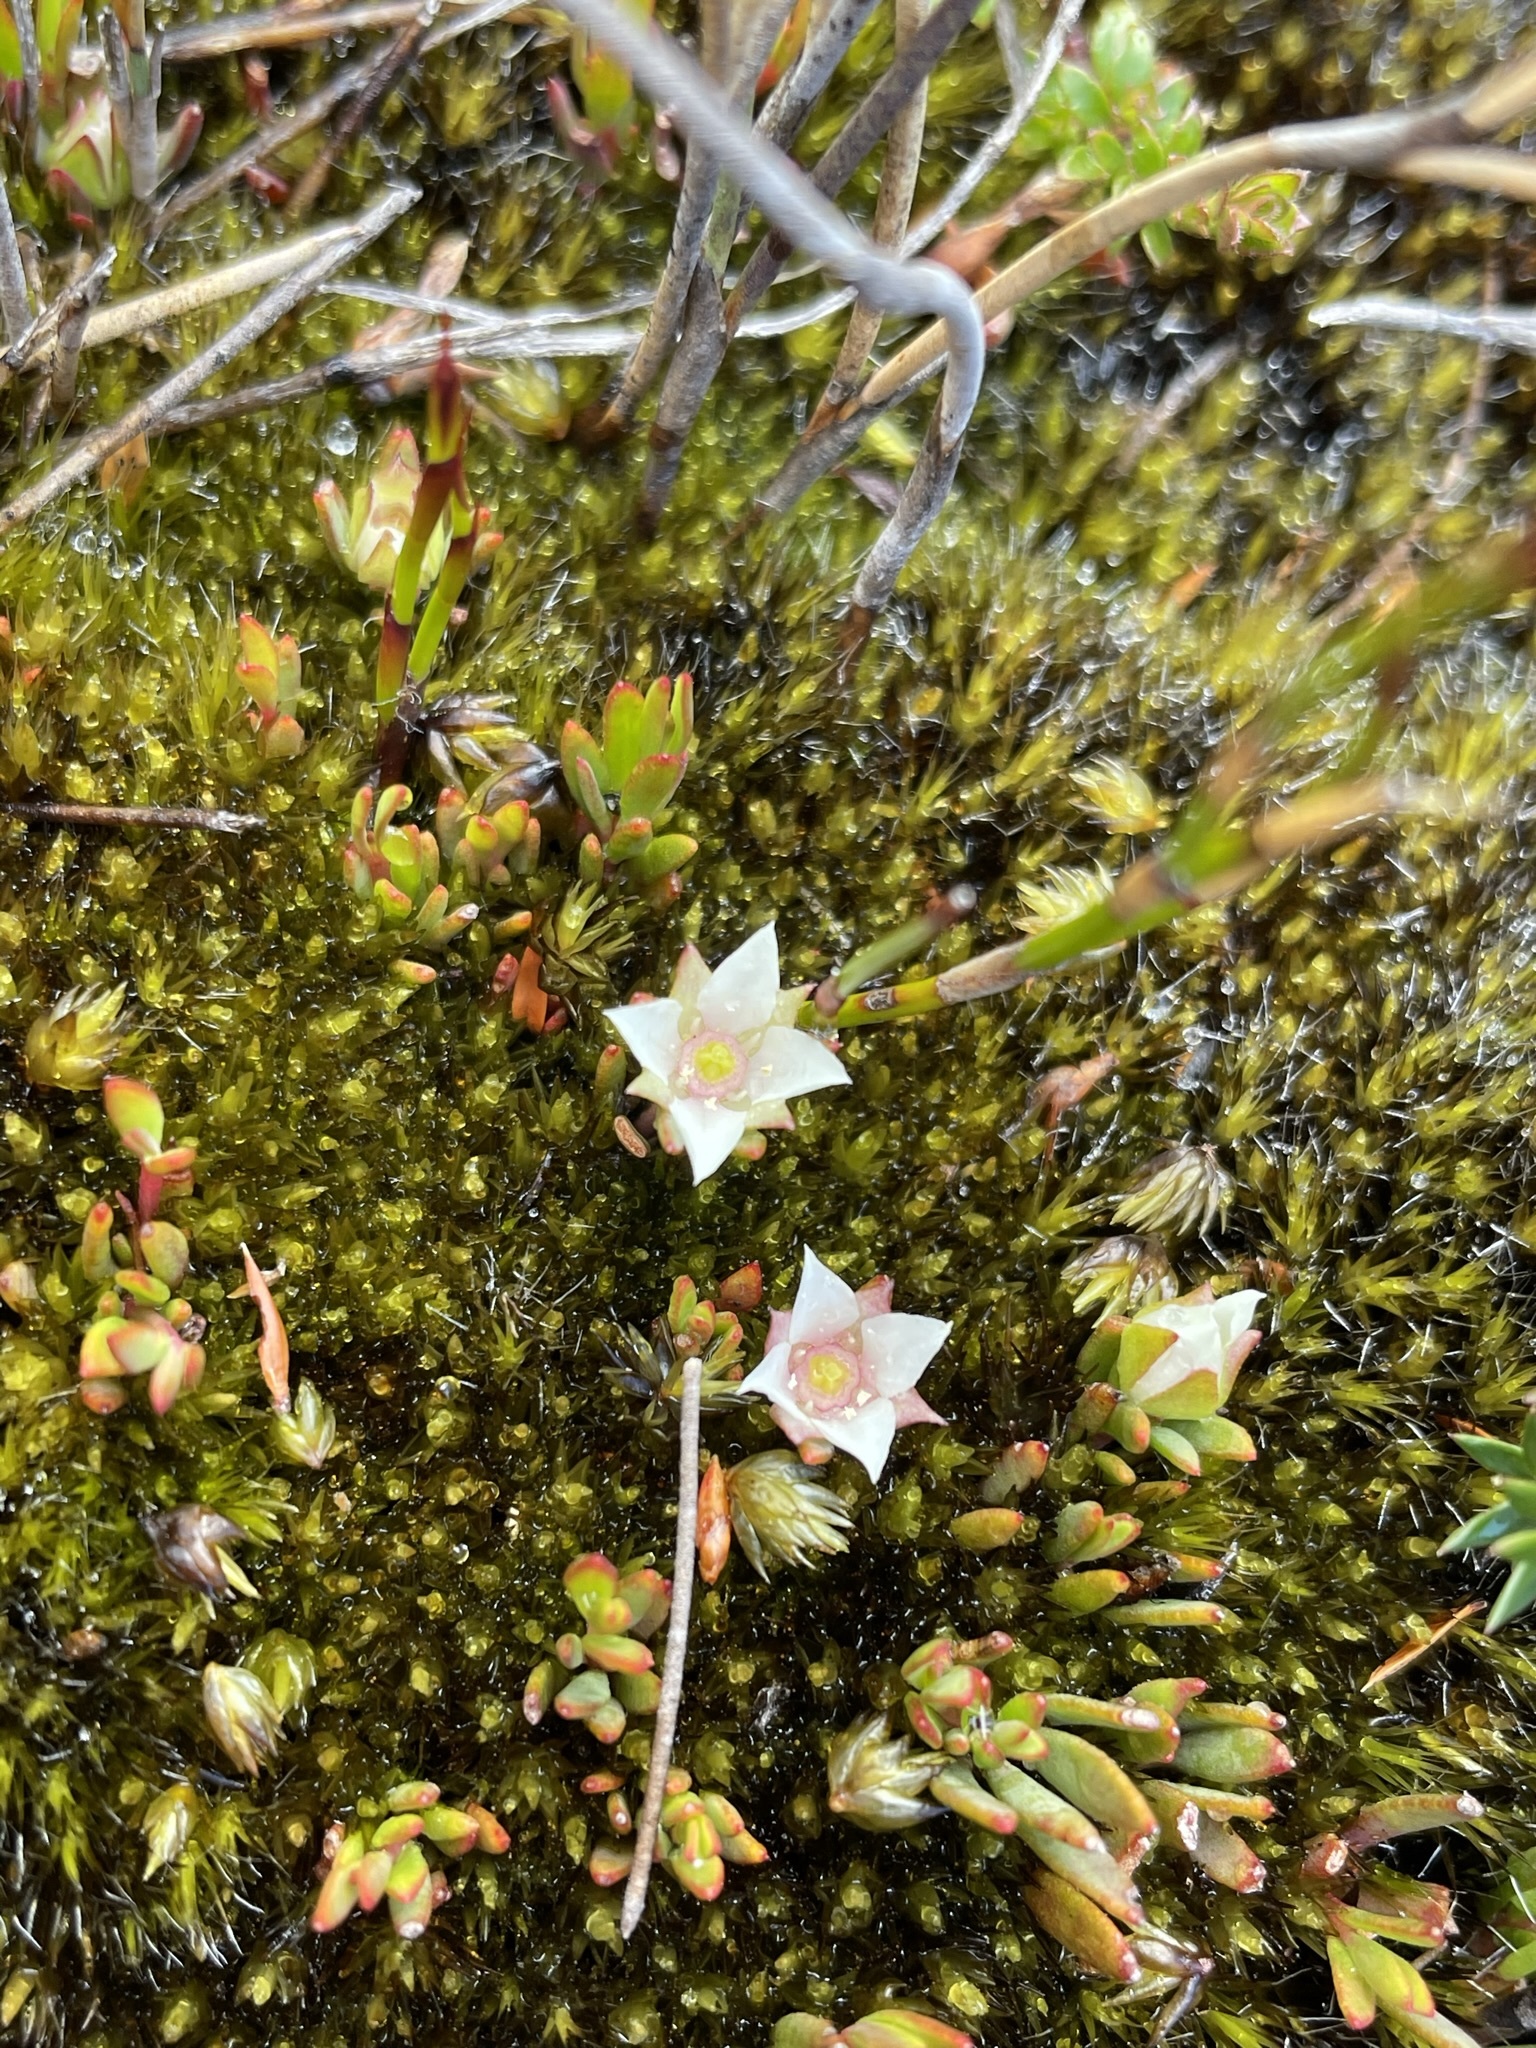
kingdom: Plantae
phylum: Tracheophyta
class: Magnoliopsida
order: Sapindales
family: Rutaceae
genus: Boronia
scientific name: Boronia parviflora
